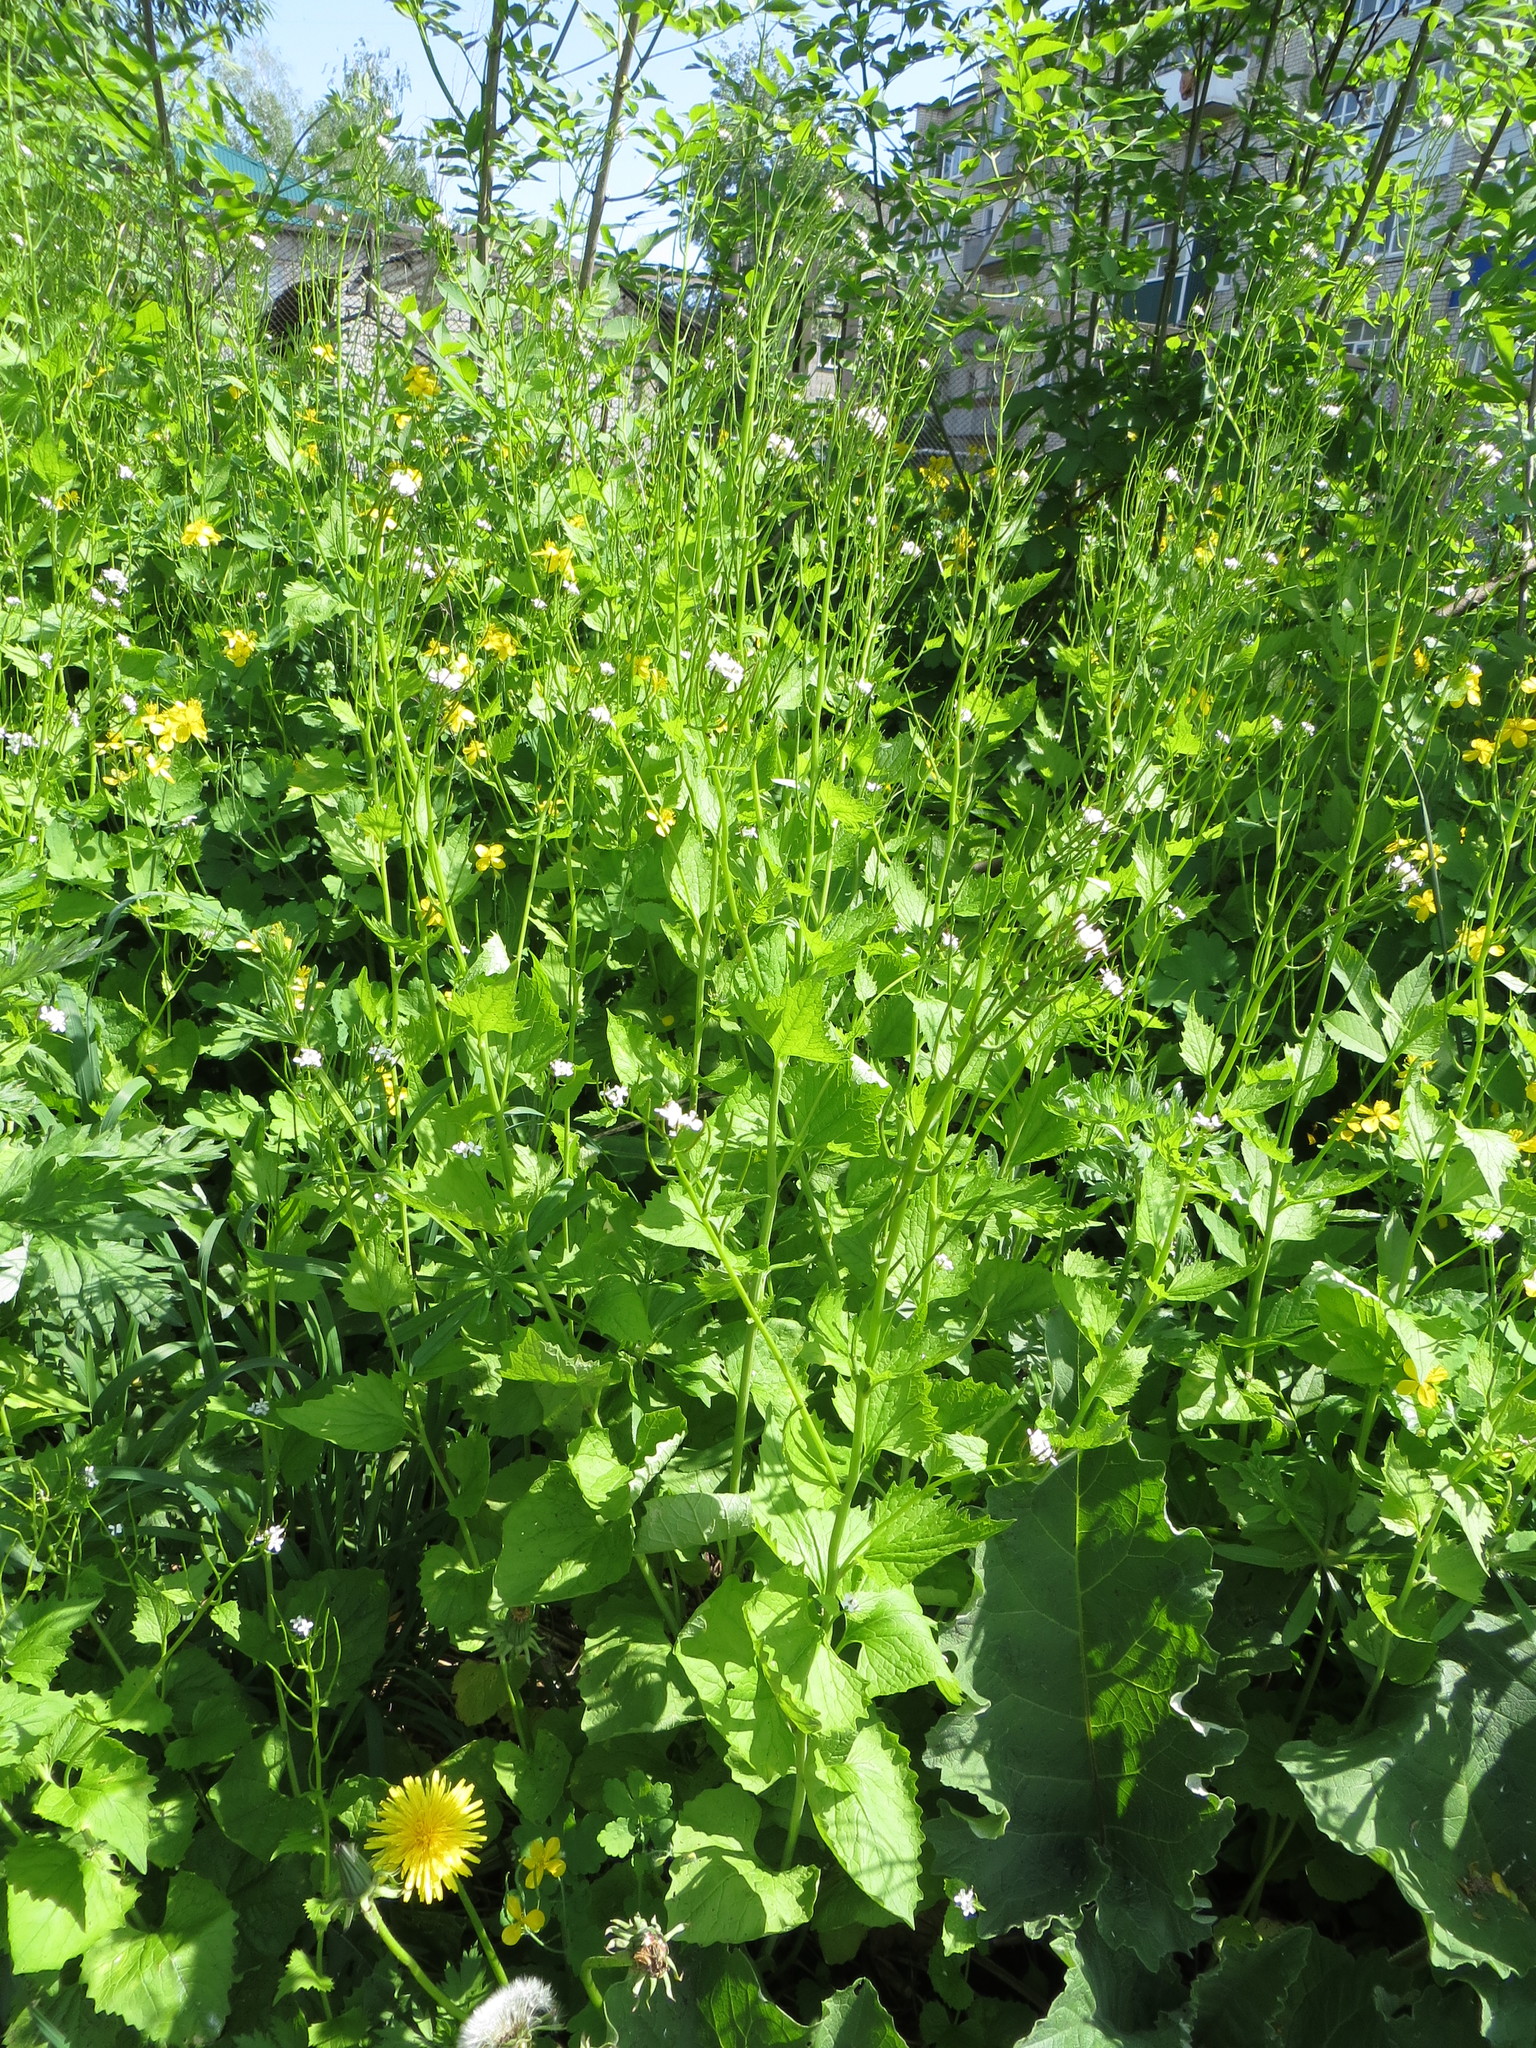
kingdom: Plantae
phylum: Tracheophyta
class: Magnoliopsida
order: Brassicales
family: Brassicaceae
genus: Alliaria
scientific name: Alliaria petiolata
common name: Garlic mustard
